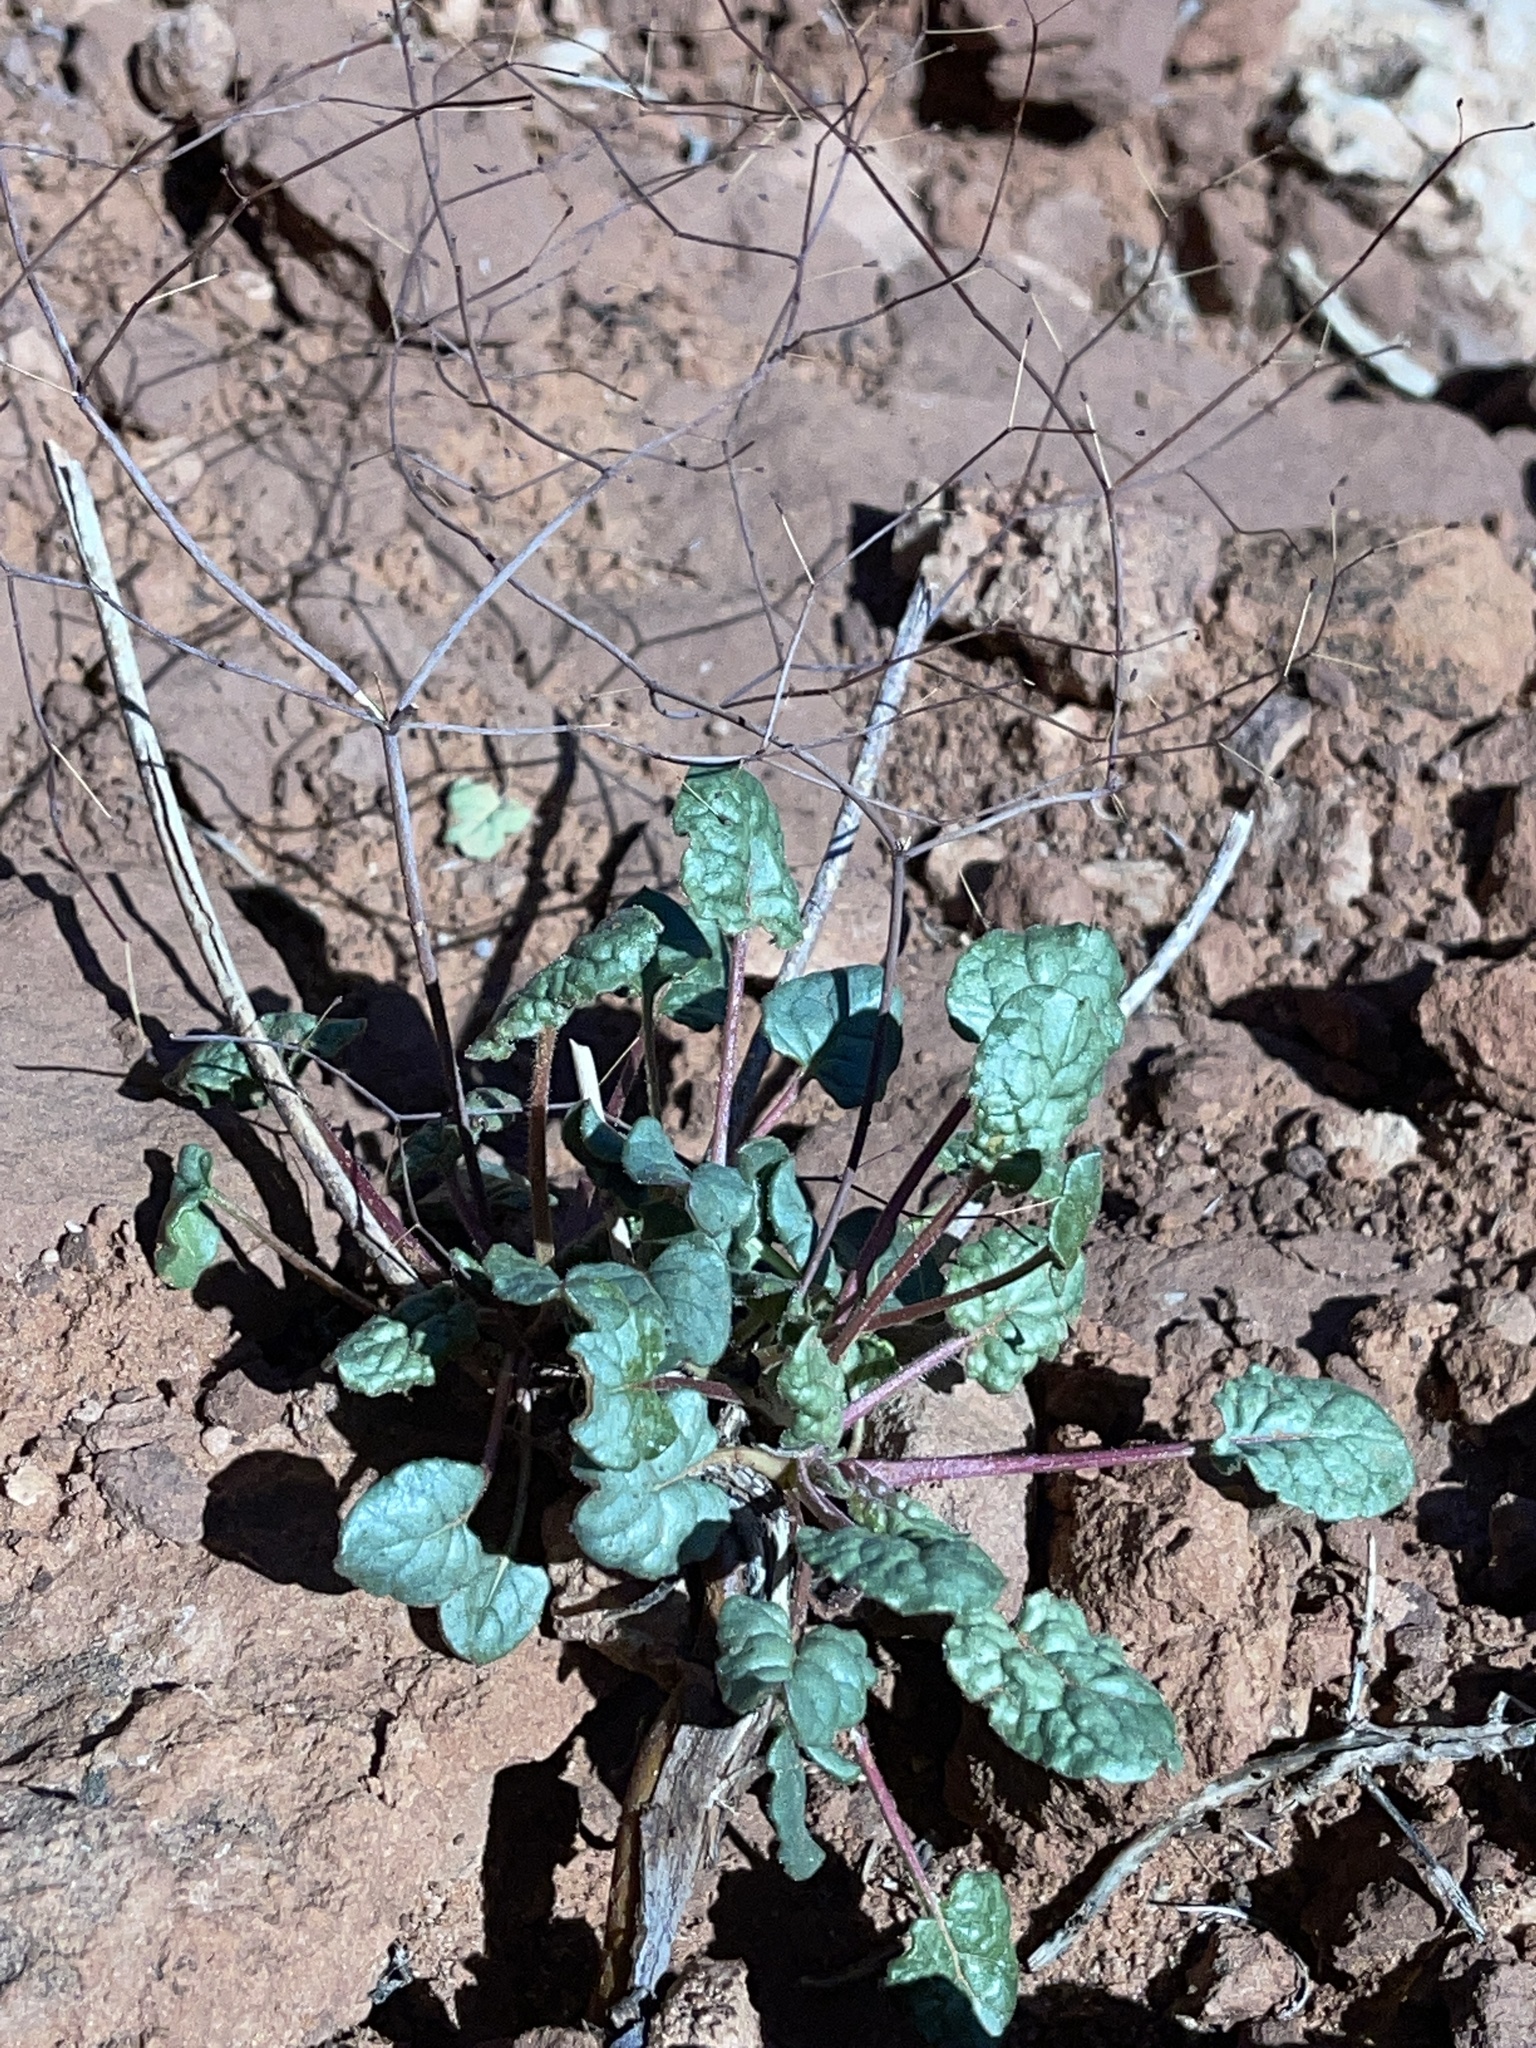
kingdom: Plantae
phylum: Tracheophyta
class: Magnoliopsida
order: Caryophyllales
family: Polygonaceae
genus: Eriogonum
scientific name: Eriogonum inflatum
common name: Desert trumpet
